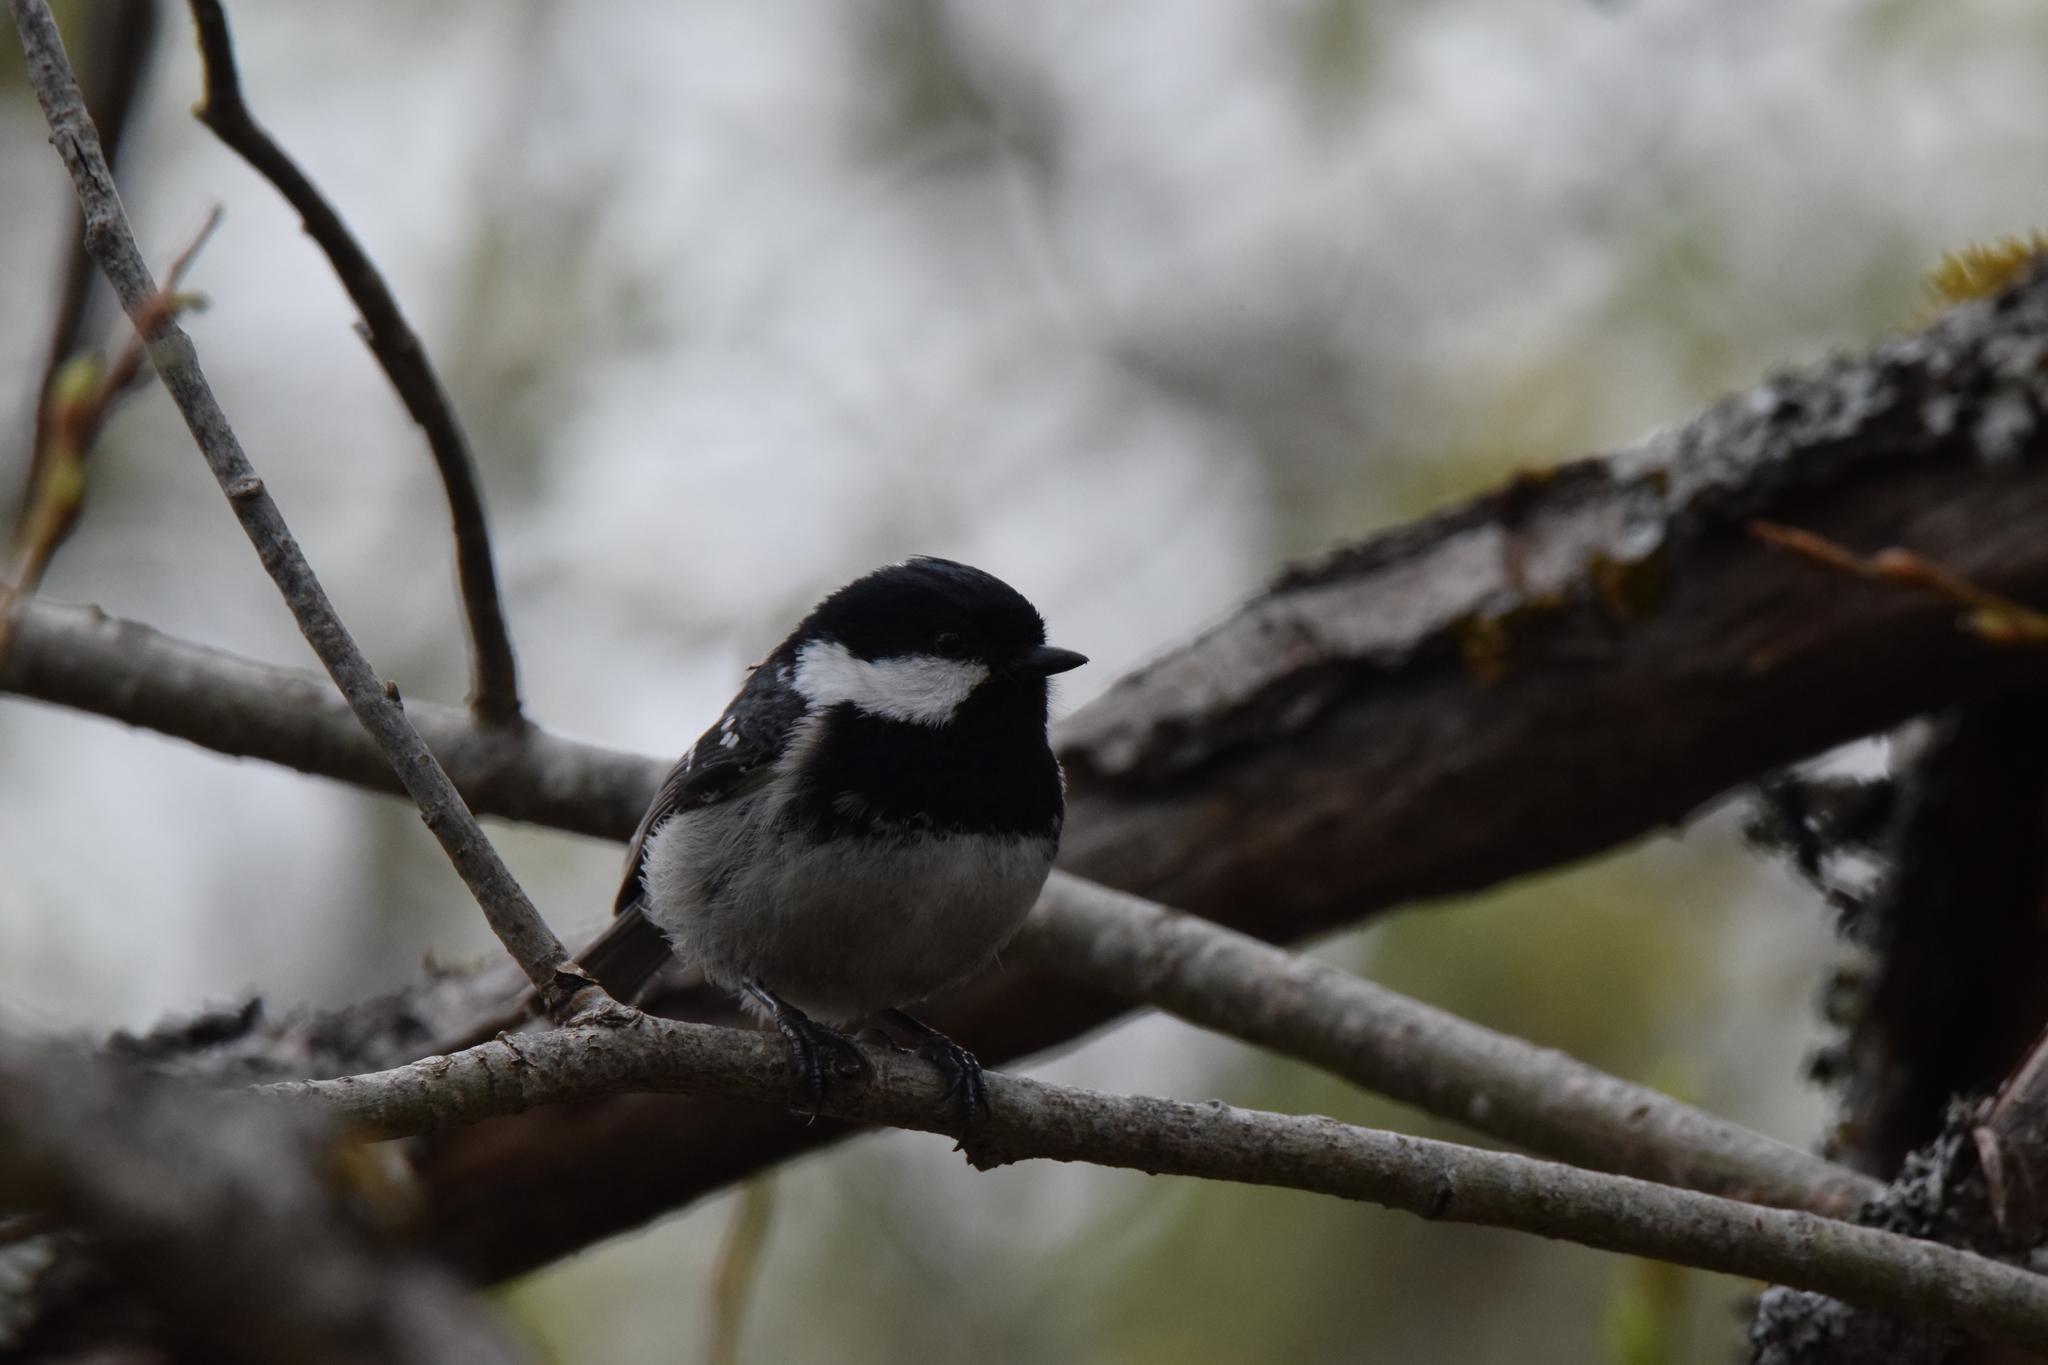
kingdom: Animalia
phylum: Chordata
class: Aves
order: Passeriformes
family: Paridae
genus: Periparus
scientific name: Periparus ater
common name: Coal tit
